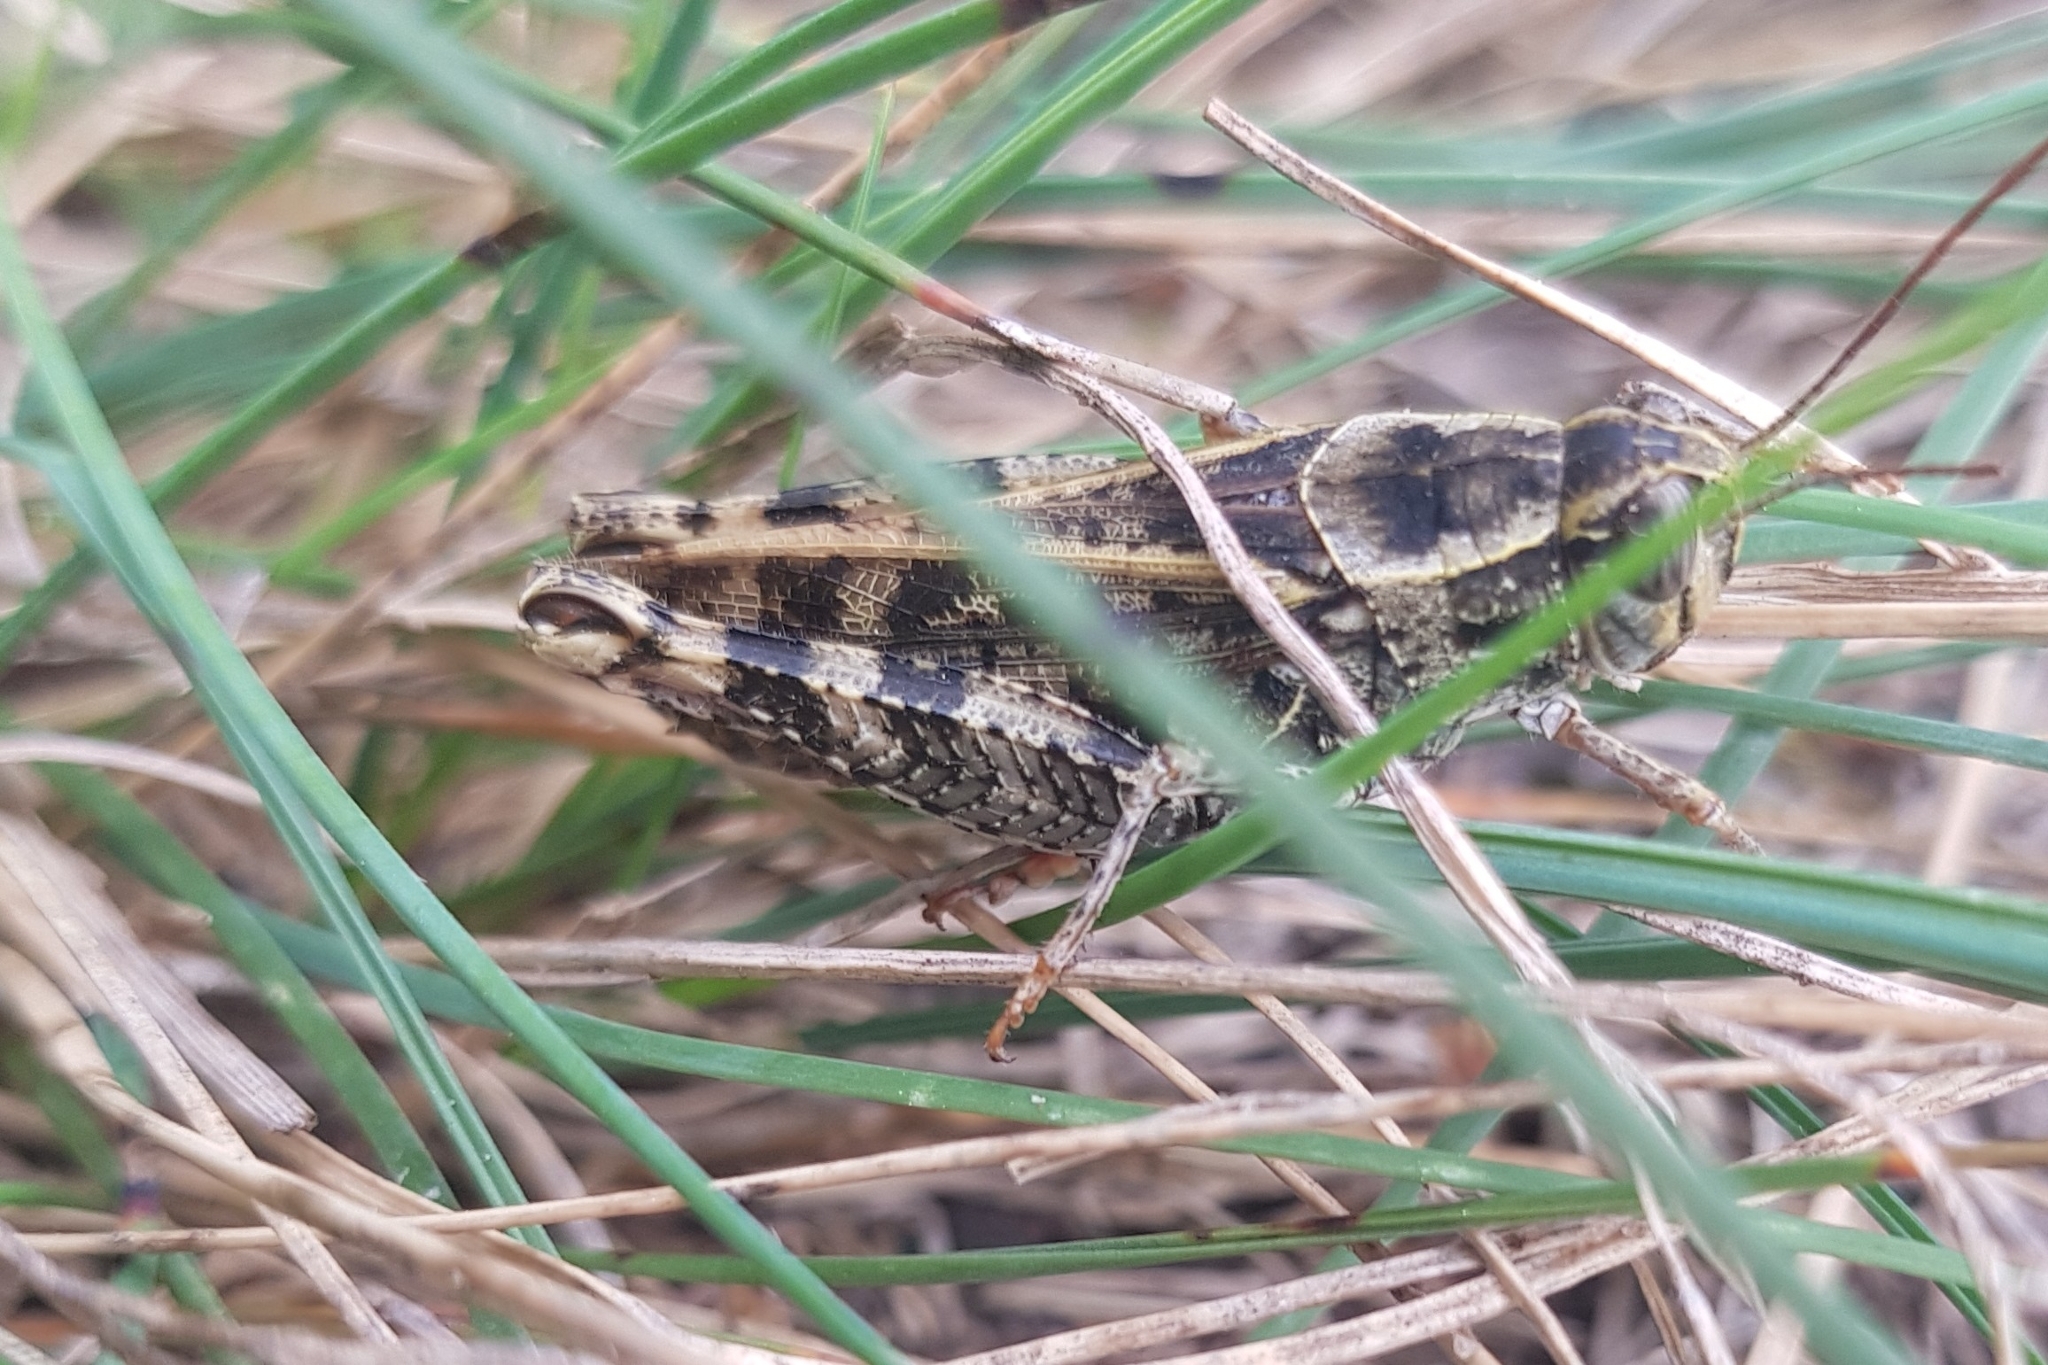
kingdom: Animalia
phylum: Arthropoda
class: Insecta
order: Orthoptera
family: Acrididae
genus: Calliptamus
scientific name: Calliptamus italicus
